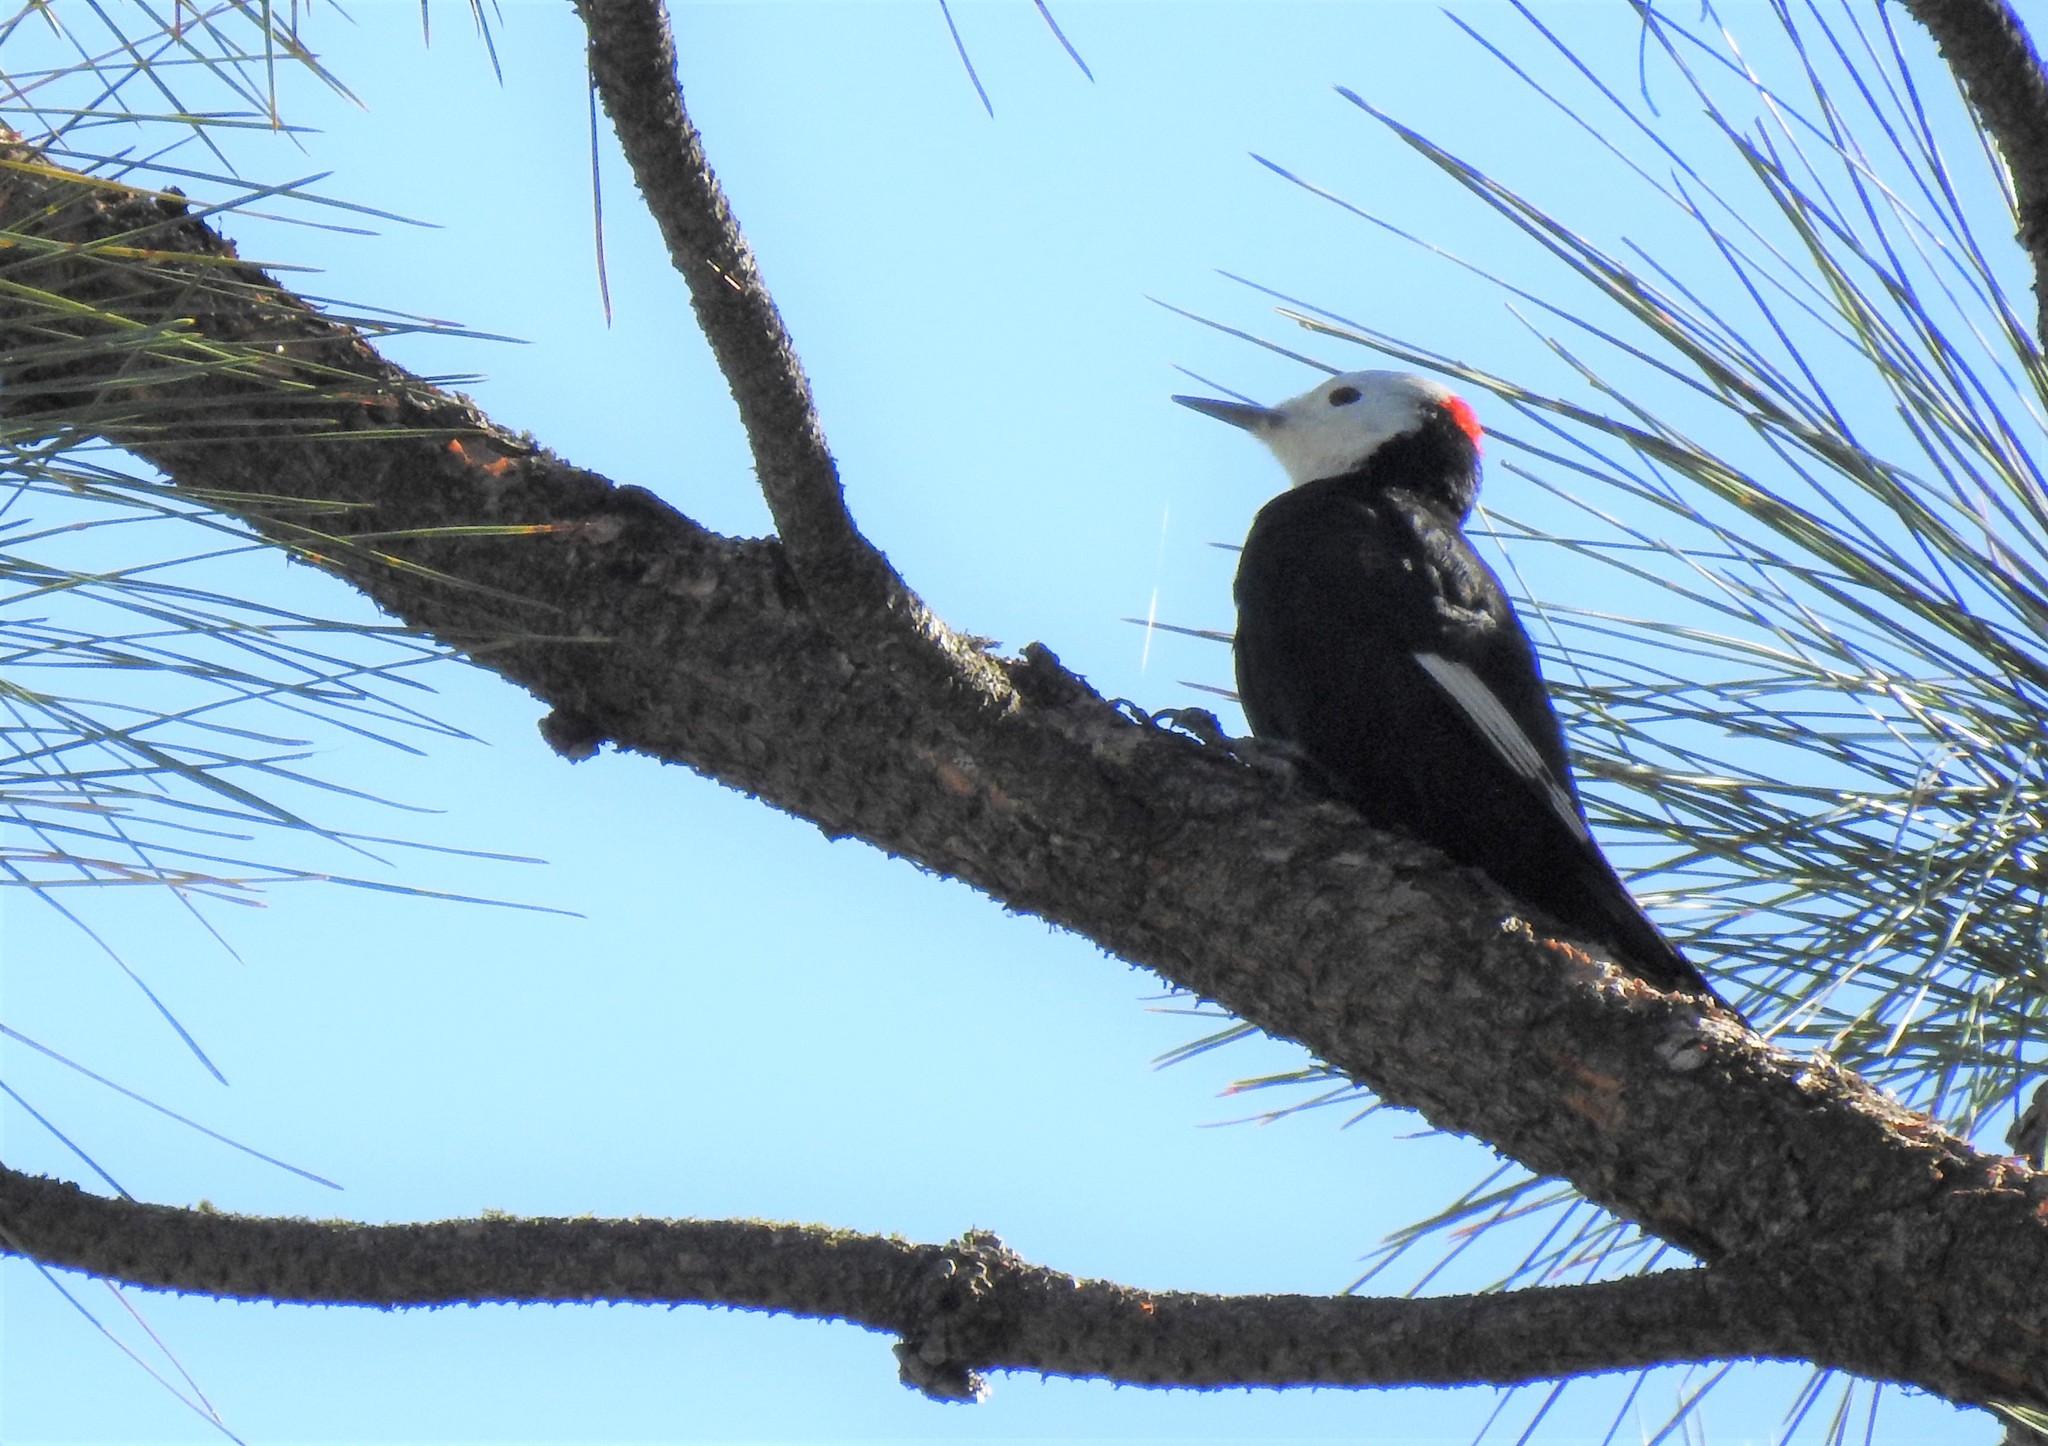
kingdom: Animalia
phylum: Chordata
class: Aves
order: Piciformes
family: Picidae
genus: Leuconotopicus
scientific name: Leuconotopicus albolarvatus
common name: White-headed woodpecker
